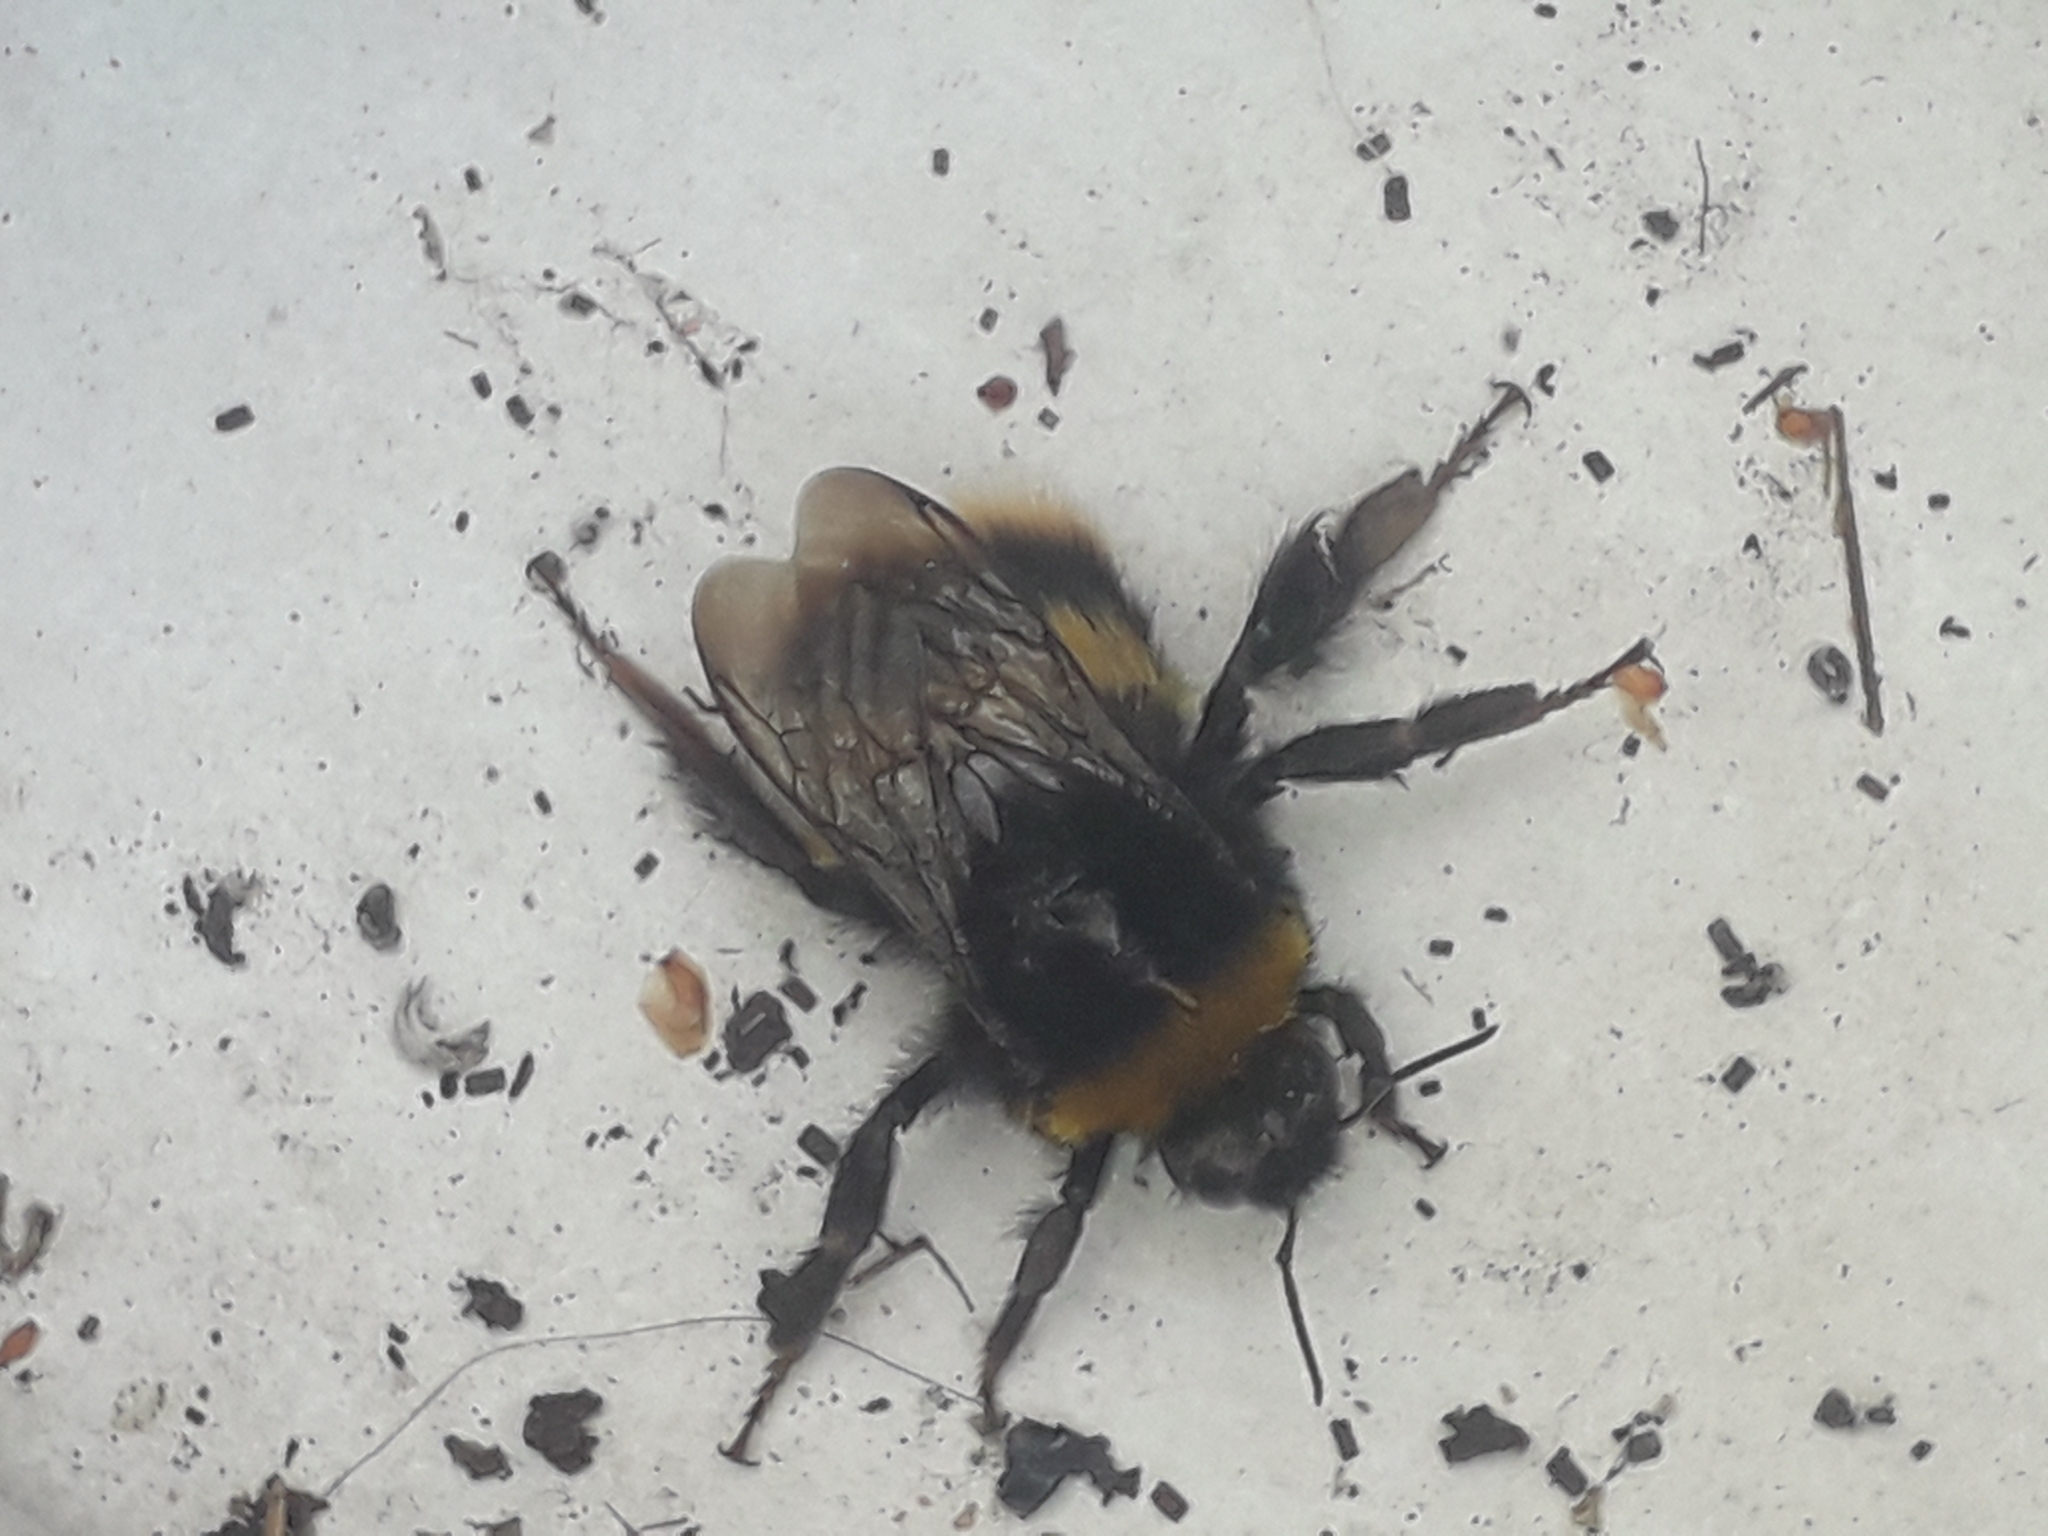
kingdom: Animalia
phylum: Arthropoda
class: Insecta
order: Hymenoptera
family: Apidae
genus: Bombus
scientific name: Bombus terrestris
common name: Buff-tailed bumblebee
